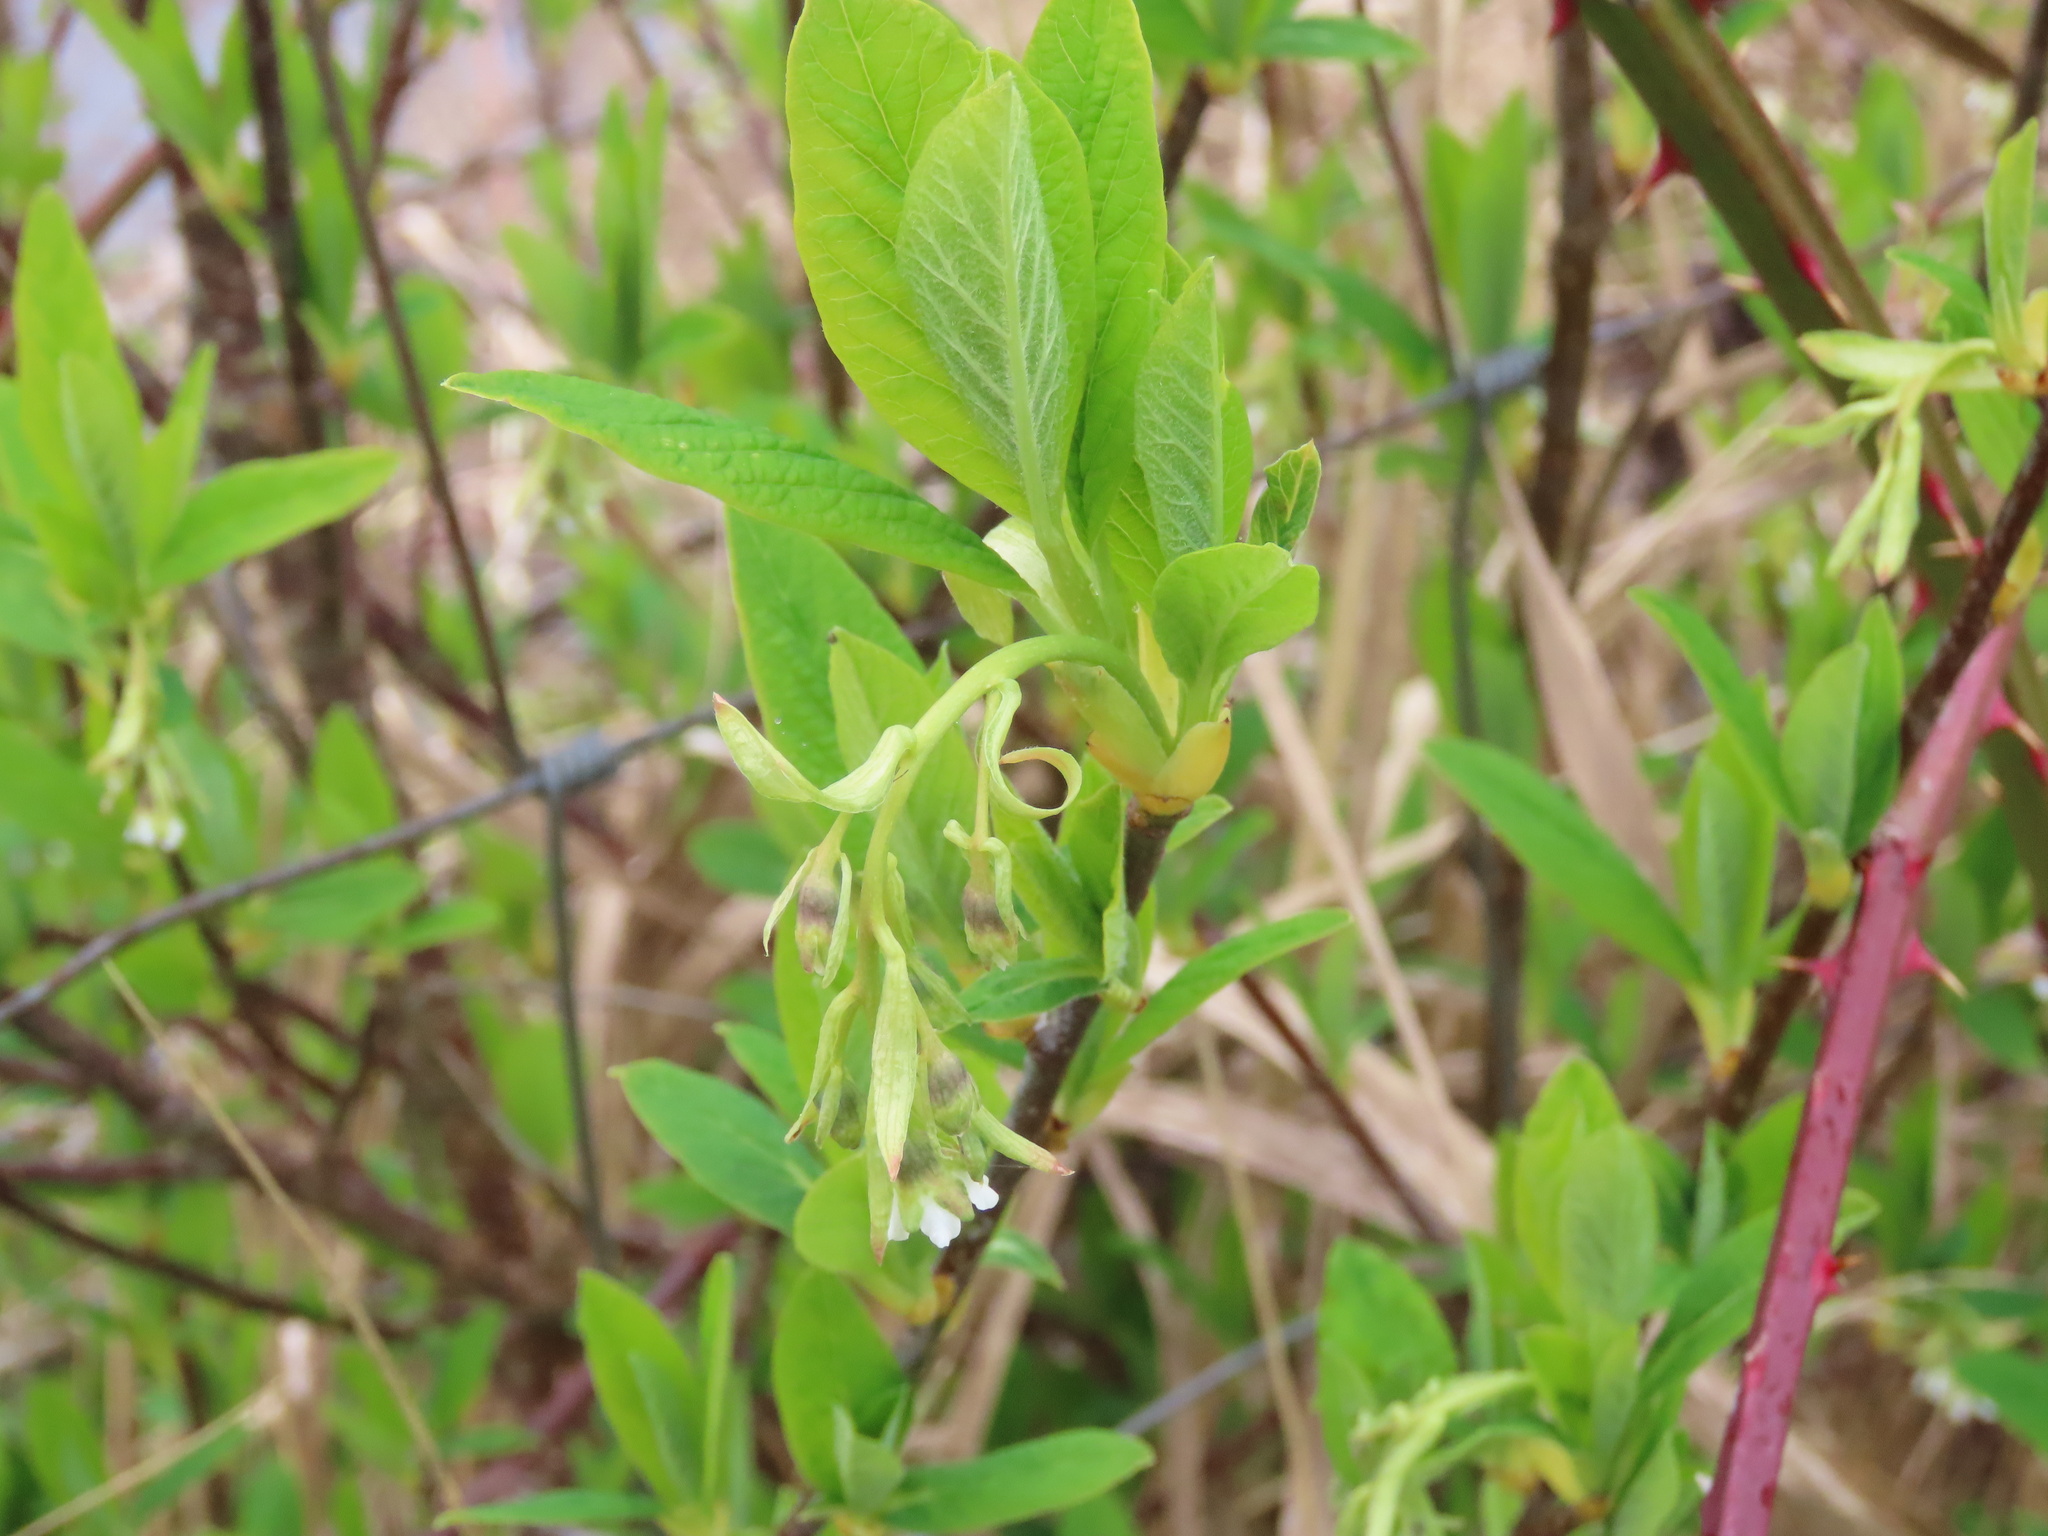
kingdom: Plantae
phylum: Tracheophyta
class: Magnoliopsida
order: Rosales
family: Rosaceae
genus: Oemleria
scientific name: Oemleria cerasiformis
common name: Osoberry
